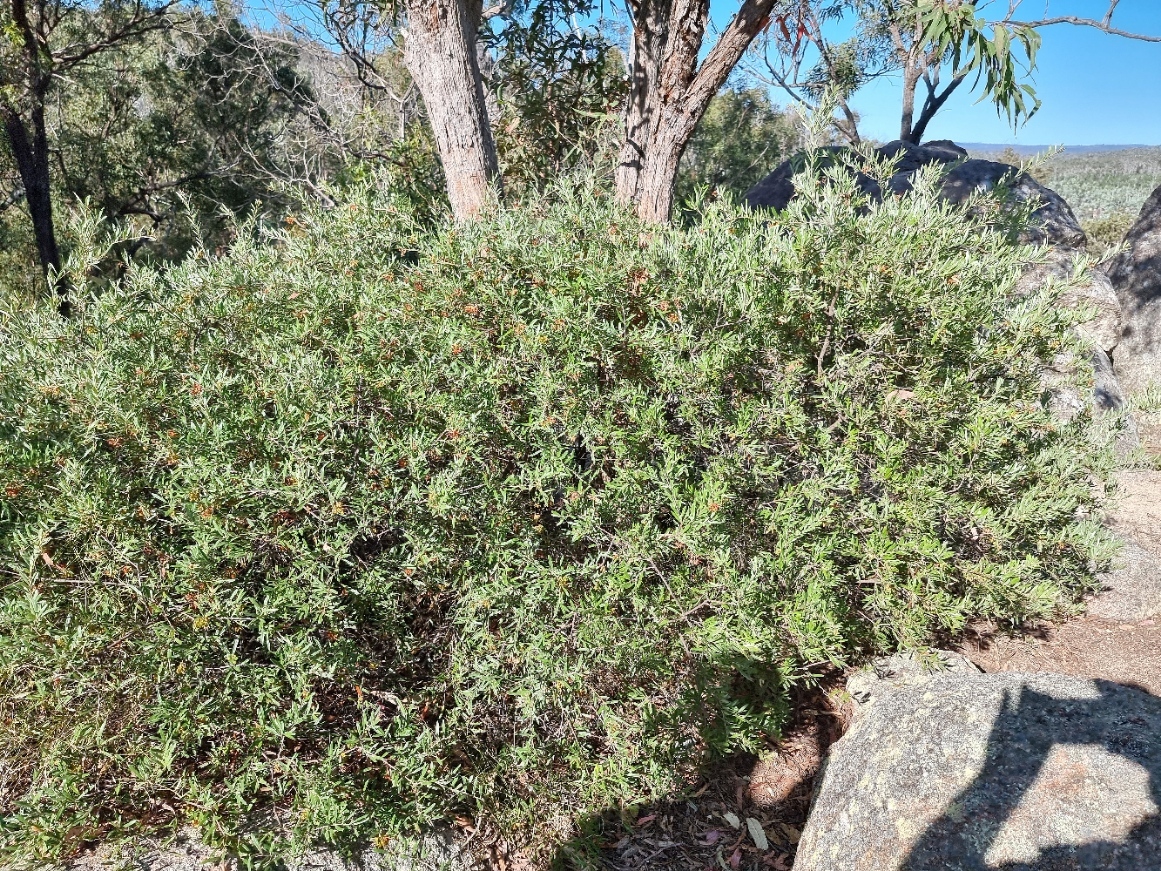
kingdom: Plantae
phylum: Tracheophyta
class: Magnoliopsida
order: Proteales
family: Proteaceae
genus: Grevillea
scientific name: Grevillea floribunda
